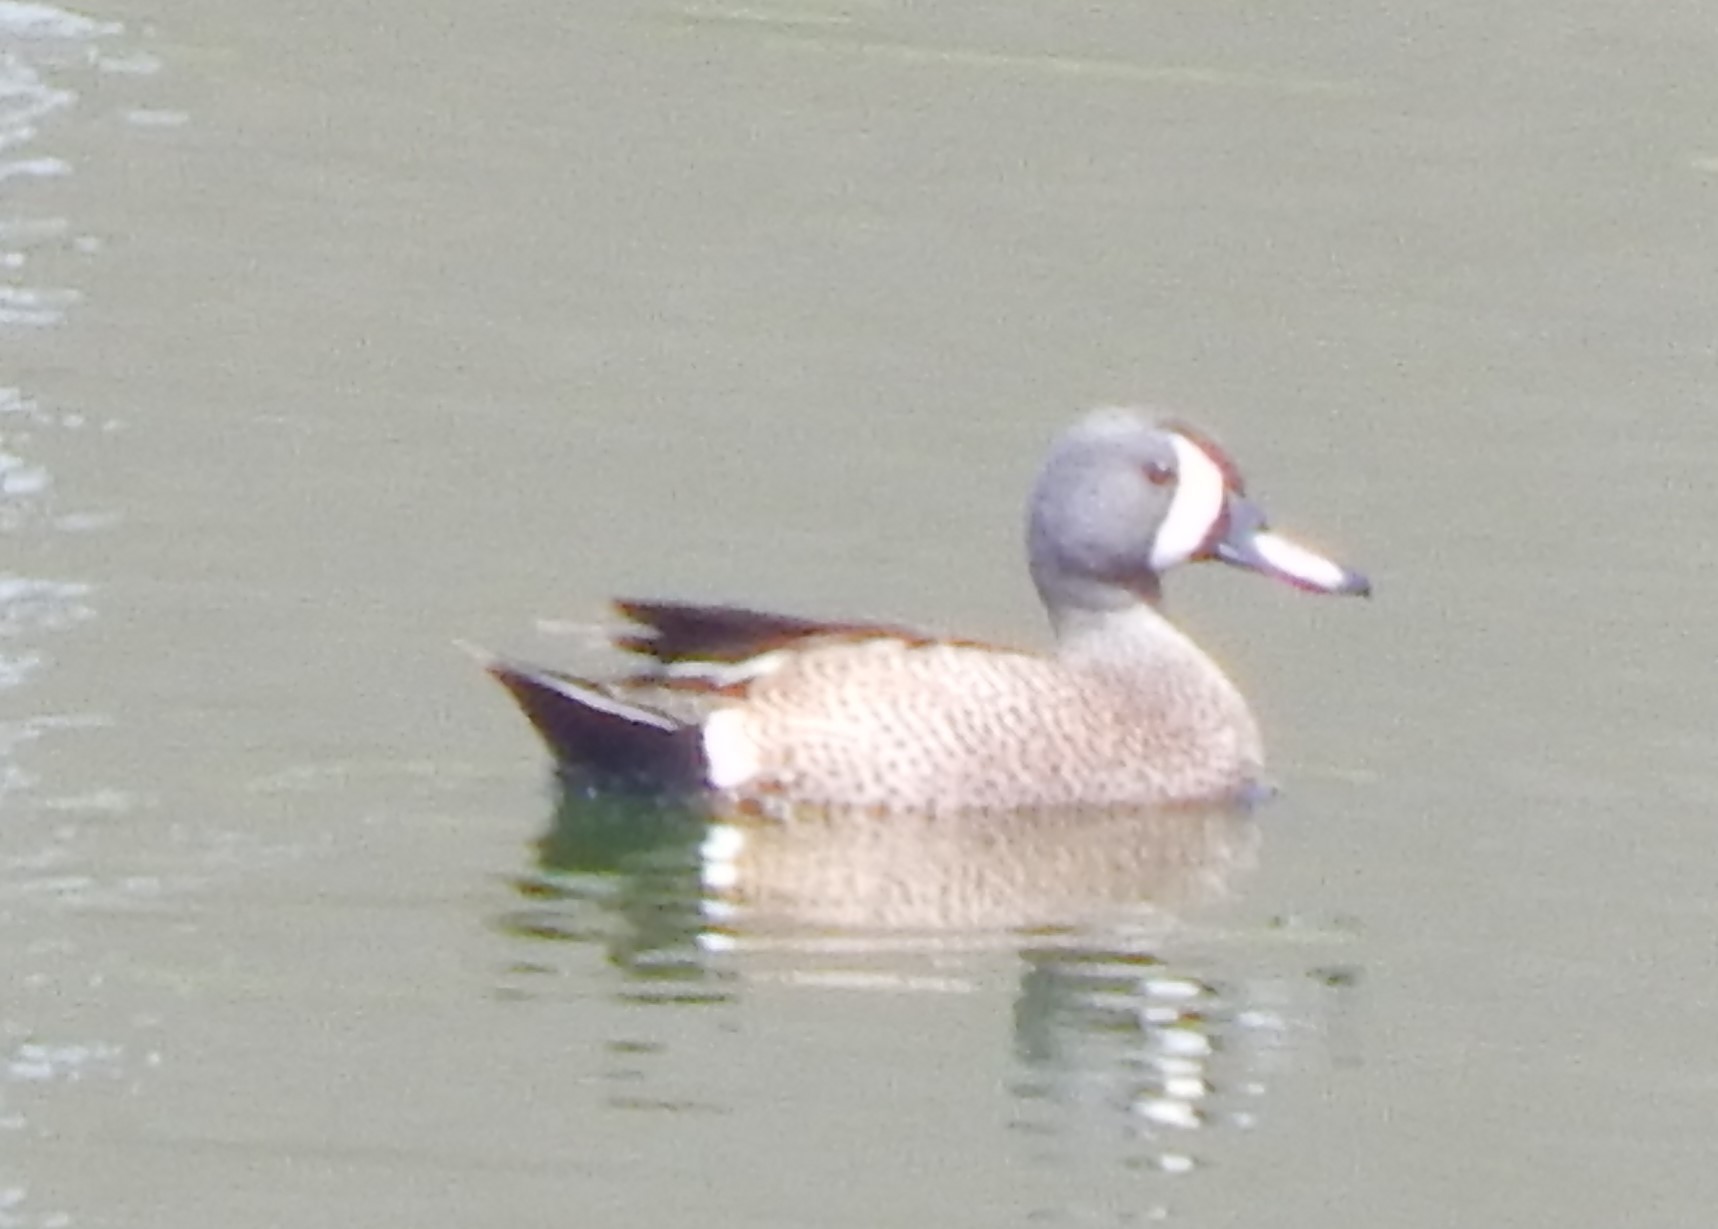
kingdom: Animalia
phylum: Chordata
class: Aves
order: Anseriformes
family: Anatidae
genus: Spatula
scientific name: Spatula discors
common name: Blue-winged teal
